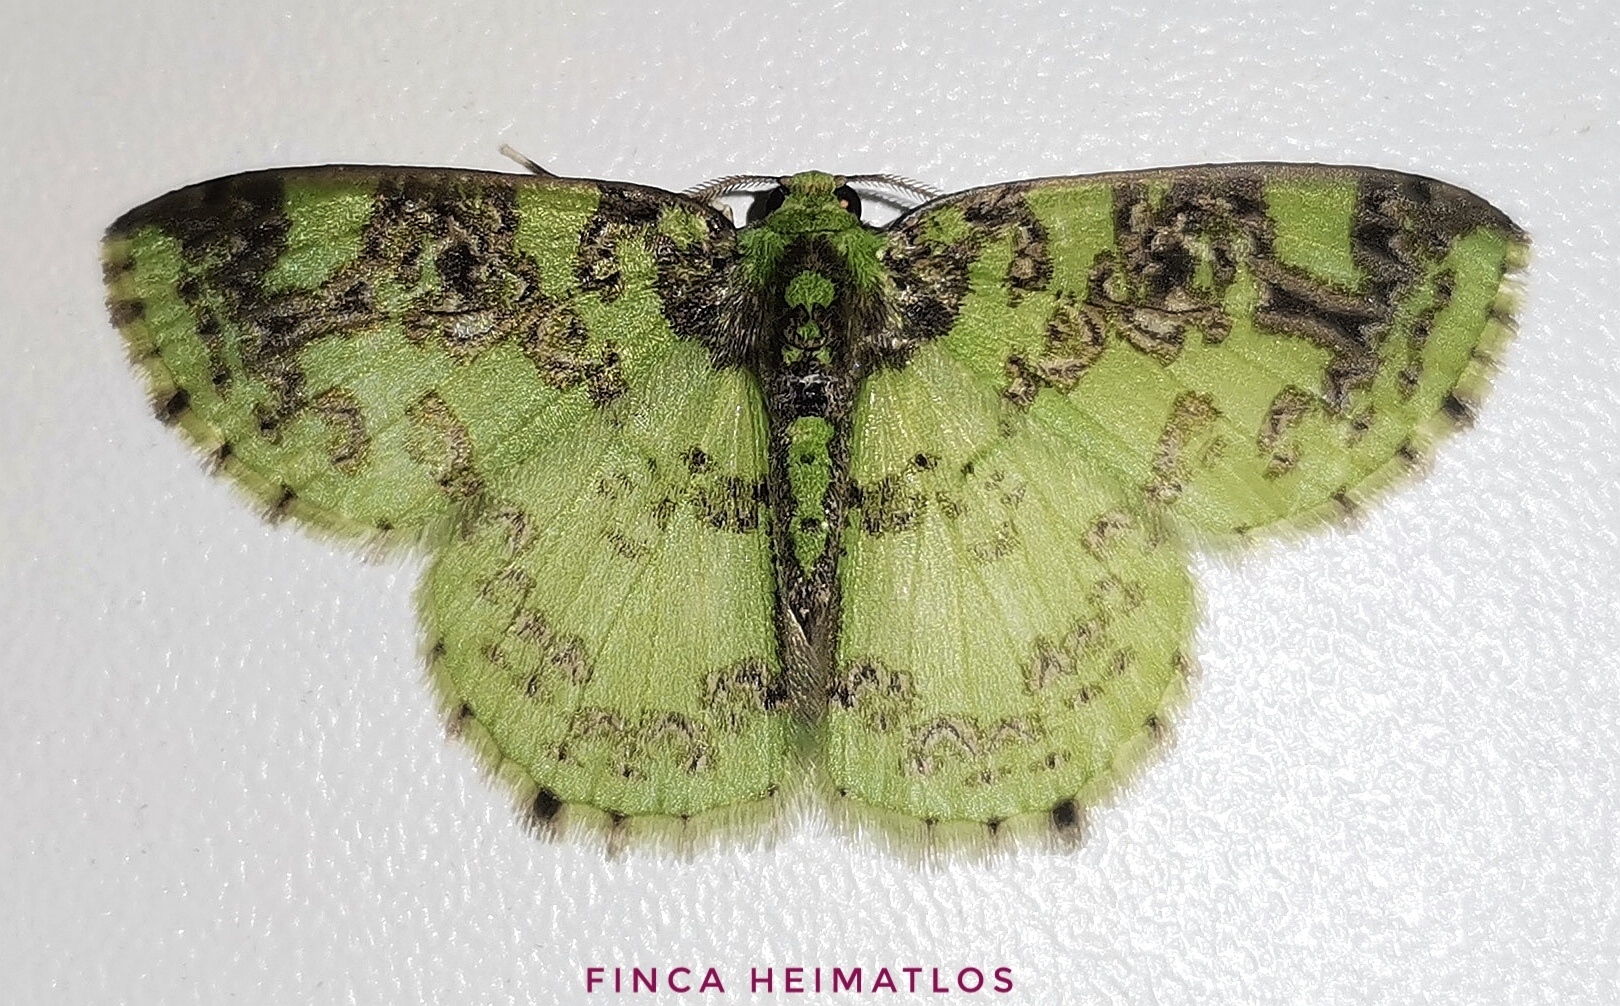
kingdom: Animalia
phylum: Arthropoda
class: Insecta
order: Lepidoptera
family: Geometridae
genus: Nemoria
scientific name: Nemoria scriptaria
